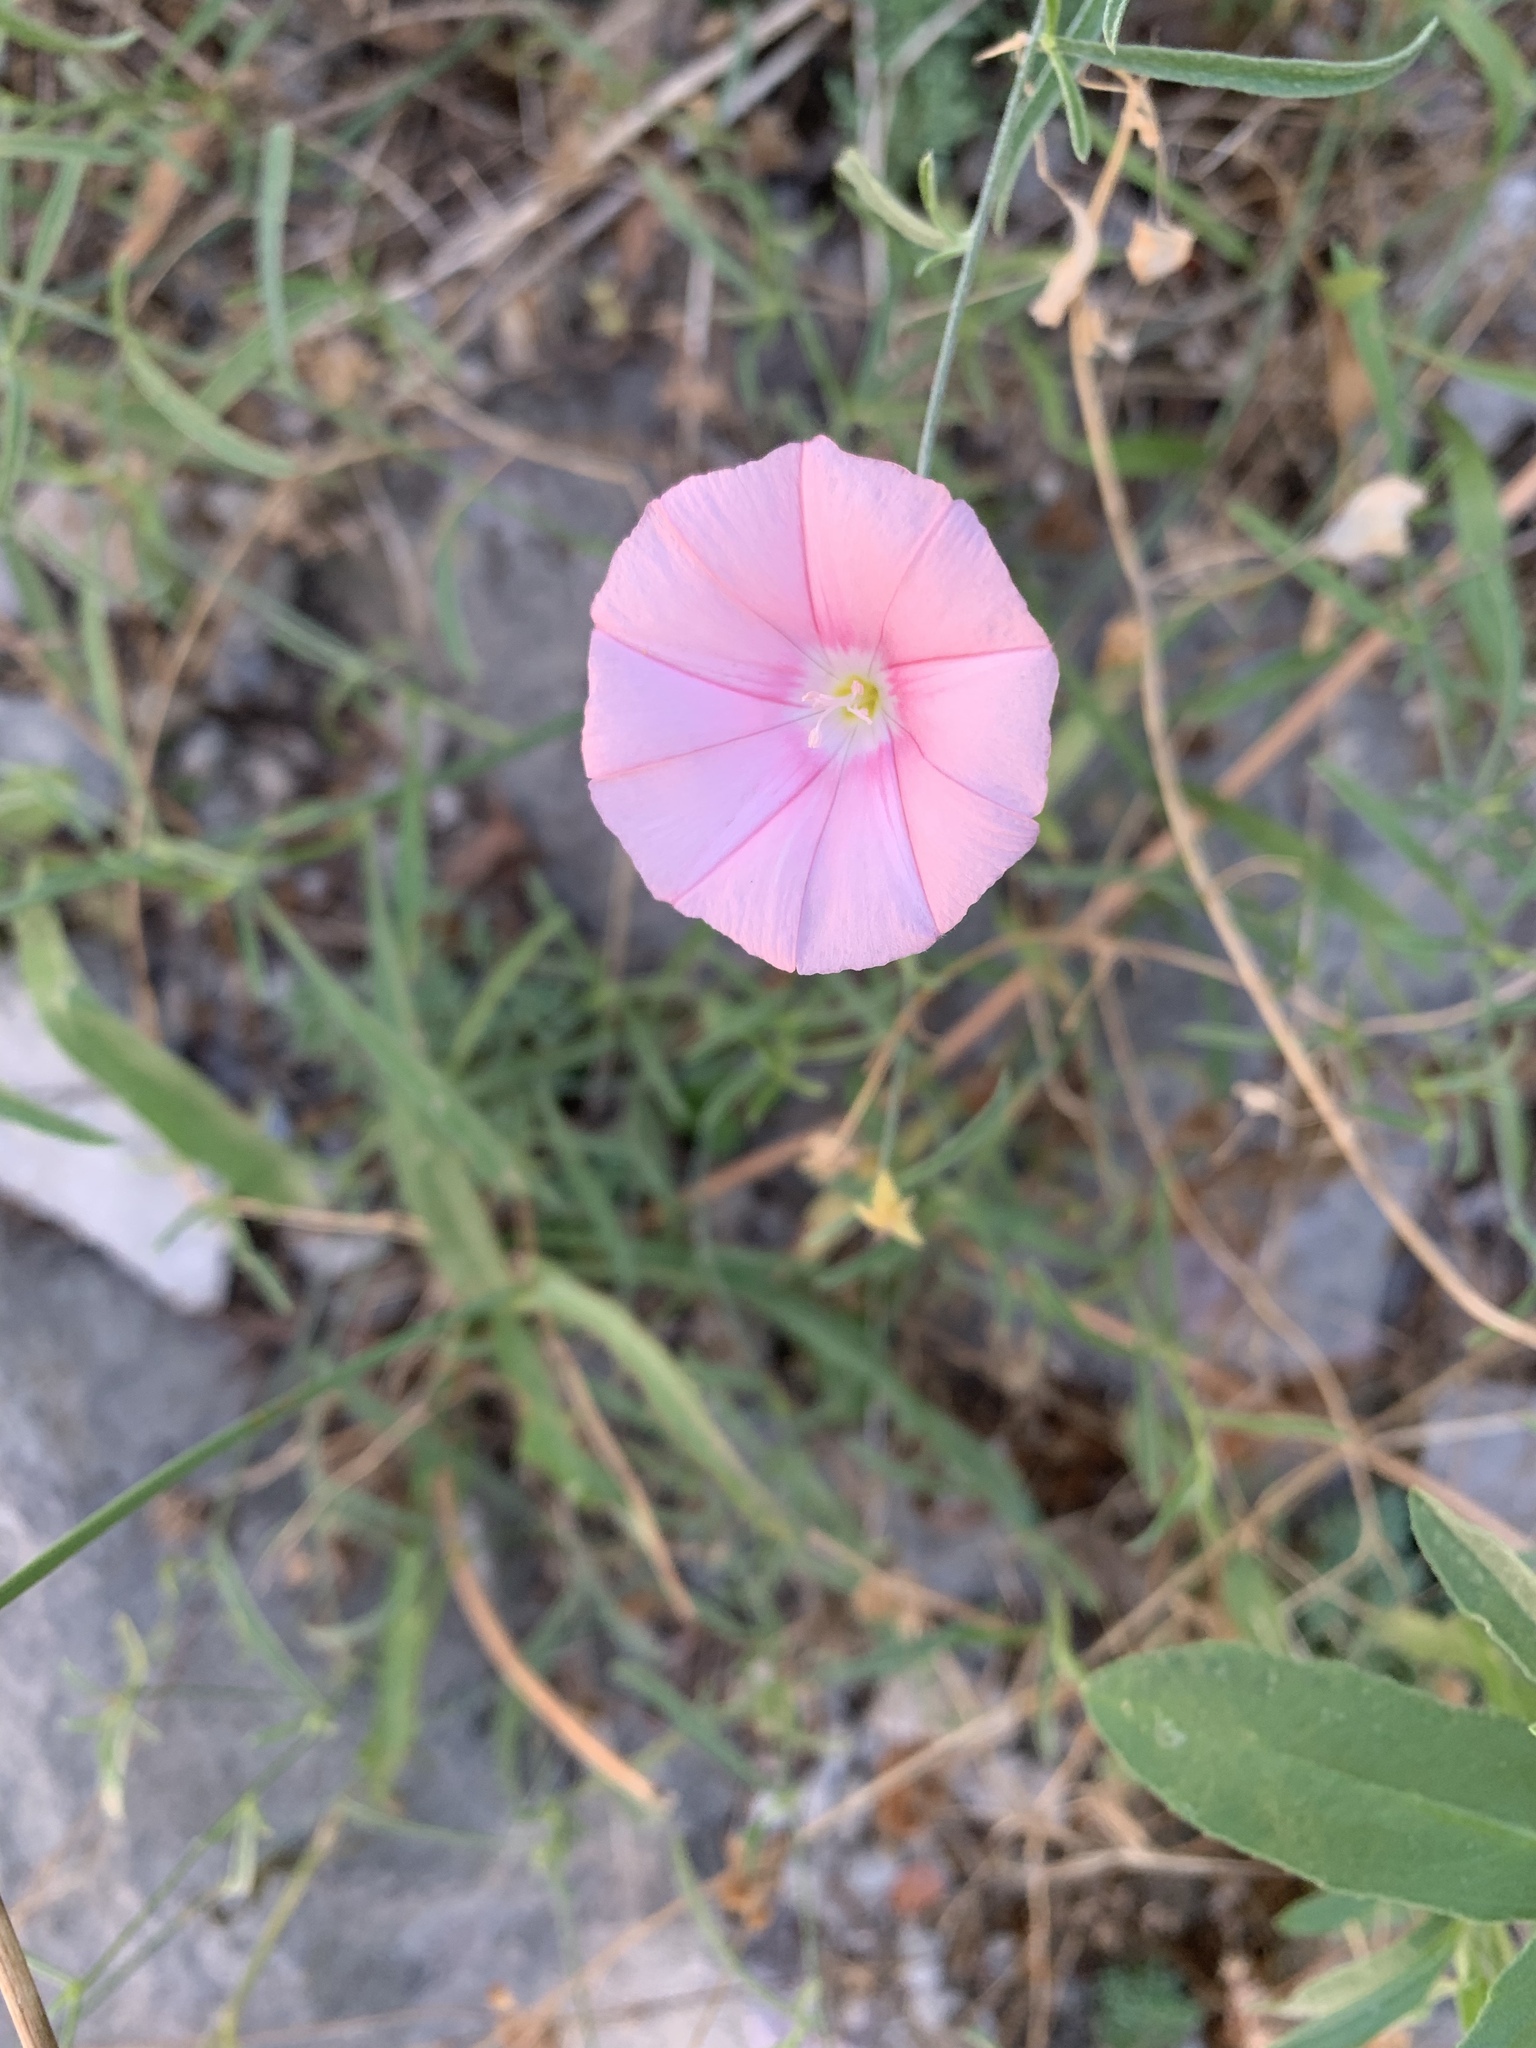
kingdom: Plantae
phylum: Tracheophyta
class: Magnoliopsida
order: Solanales
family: Convolvulaceae
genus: Convolvulus
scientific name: Convolvulus cantabrica
